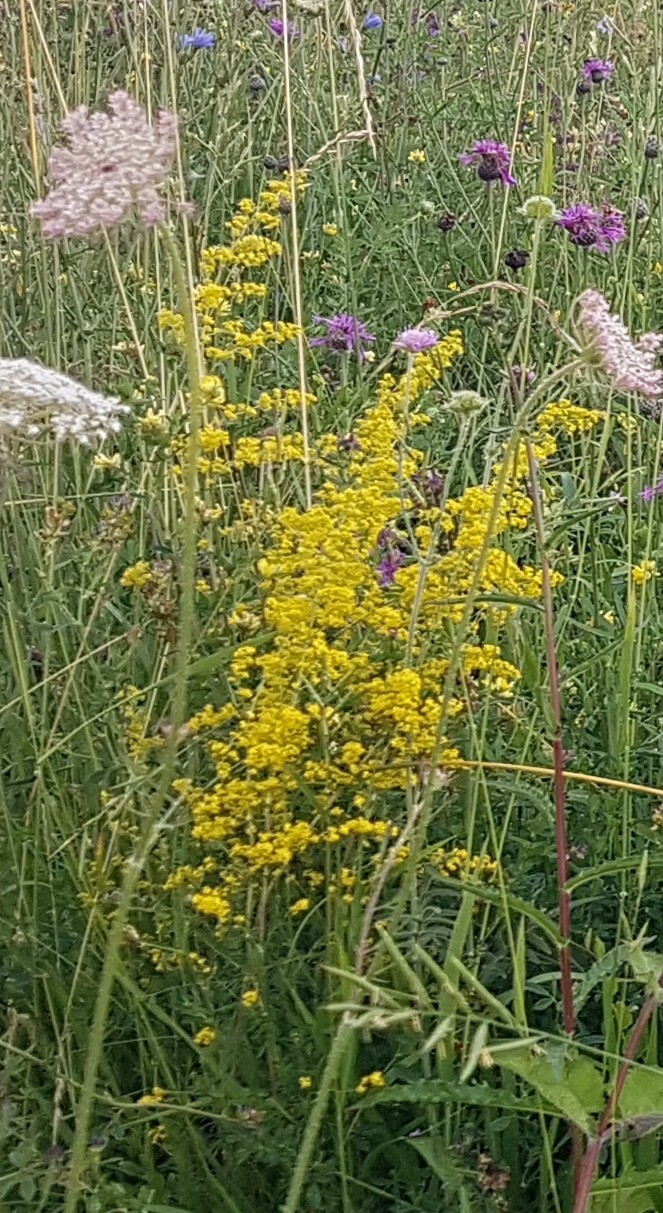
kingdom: Plantae
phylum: Tracheophyta
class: Magnoliopsida
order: Gentianales
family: Rubiaceae
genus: Galium
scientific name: Galium verum
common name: Lady's bedstraw
